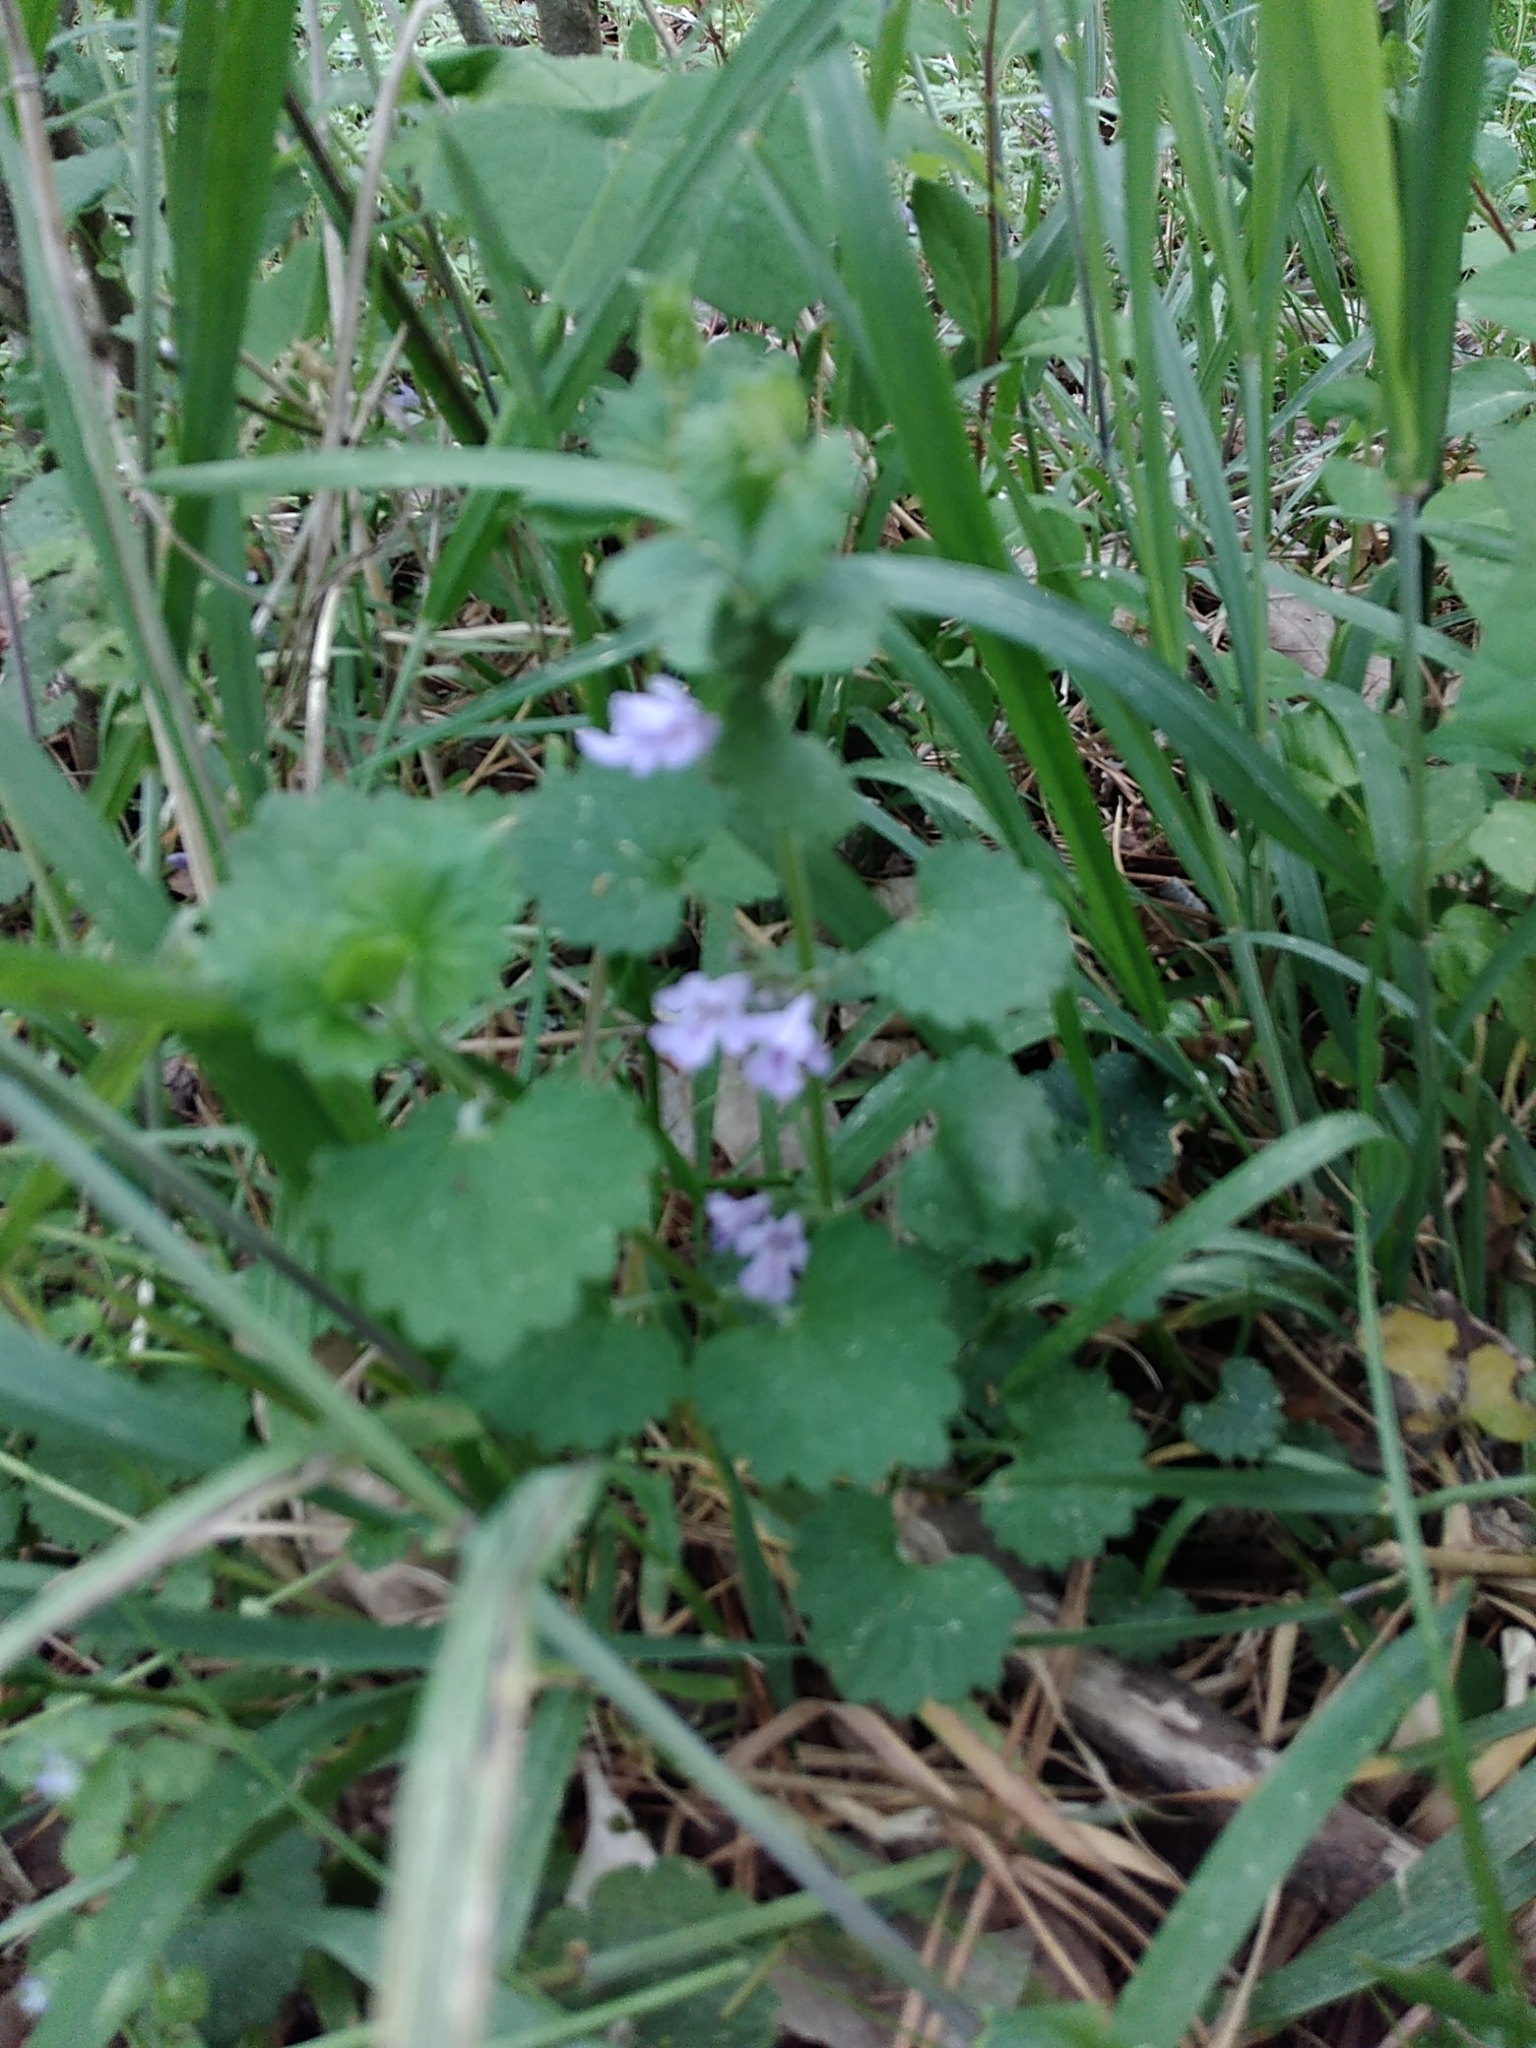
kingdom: Plantae
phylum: Tracheophyta
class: Magnoliopsida
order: Lamiales
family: Lamiaceae
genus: Glechoma
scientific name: Glechoma hederacea
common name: Ground ivy
